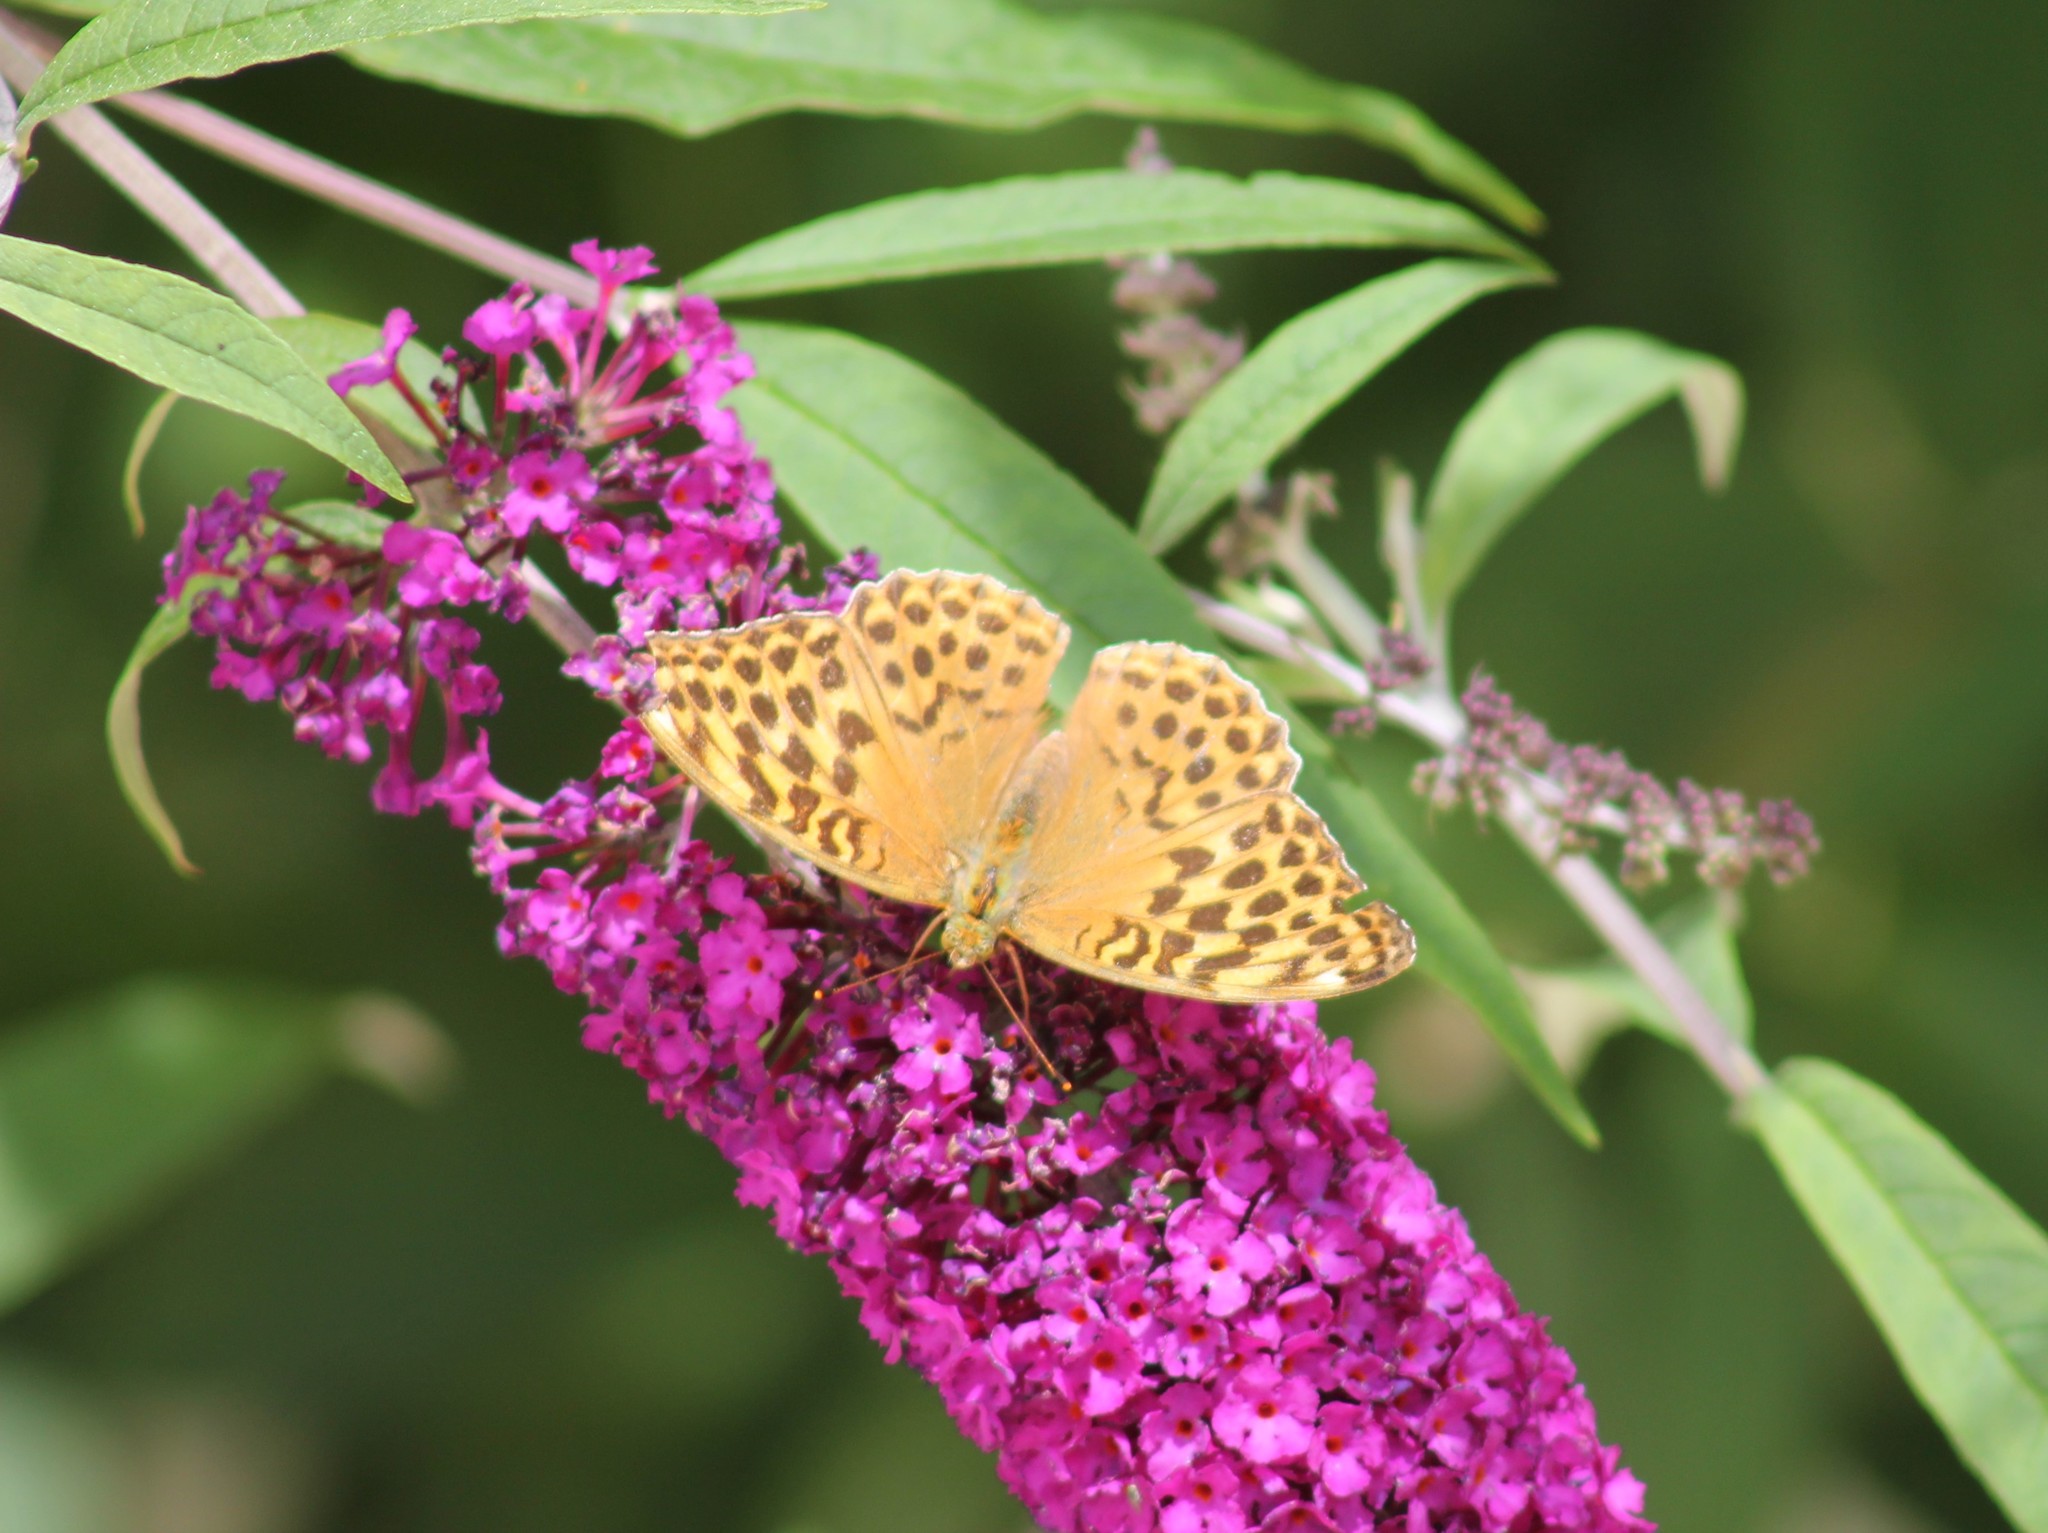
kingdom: Animalia
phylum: Arthropoda
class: Insecta
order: Lepidoptera
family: Nymphalidae
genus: Argynnis
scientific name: Argynnis paphia
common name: Silver-washed fritillary
